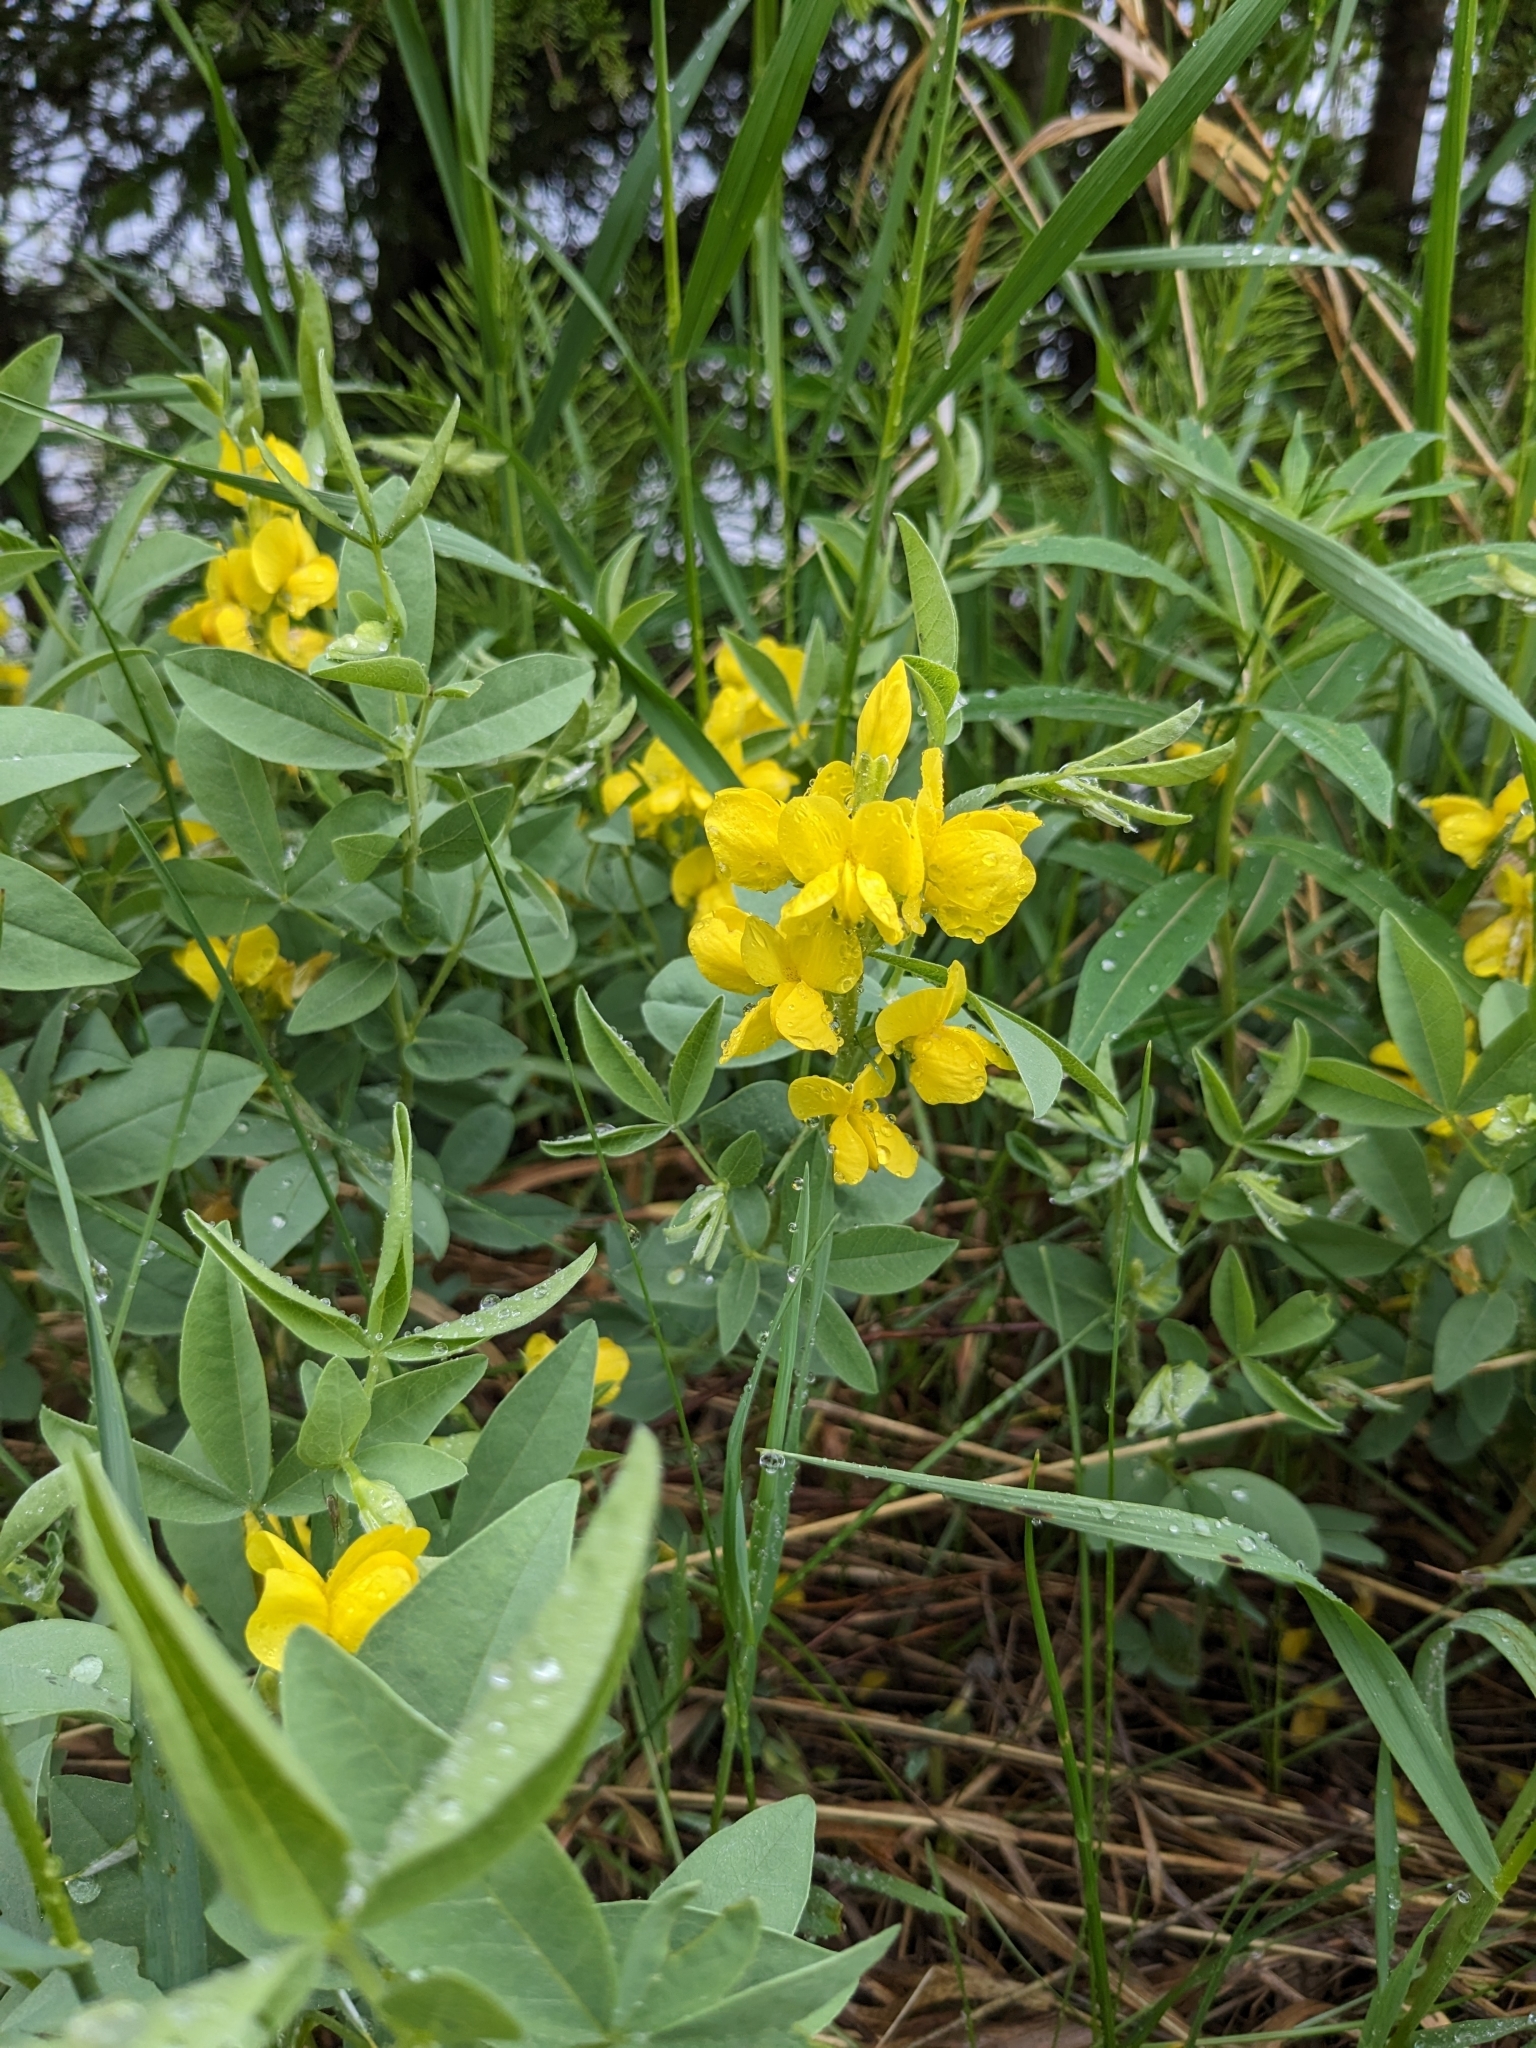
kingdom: Plantae
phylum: Tracheophyta
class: Magnoliopsida
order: Fabales
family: Fabaceae
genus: Thermopsis
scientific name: Thermopsis rhombifolia
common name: Circle-pod-pea
